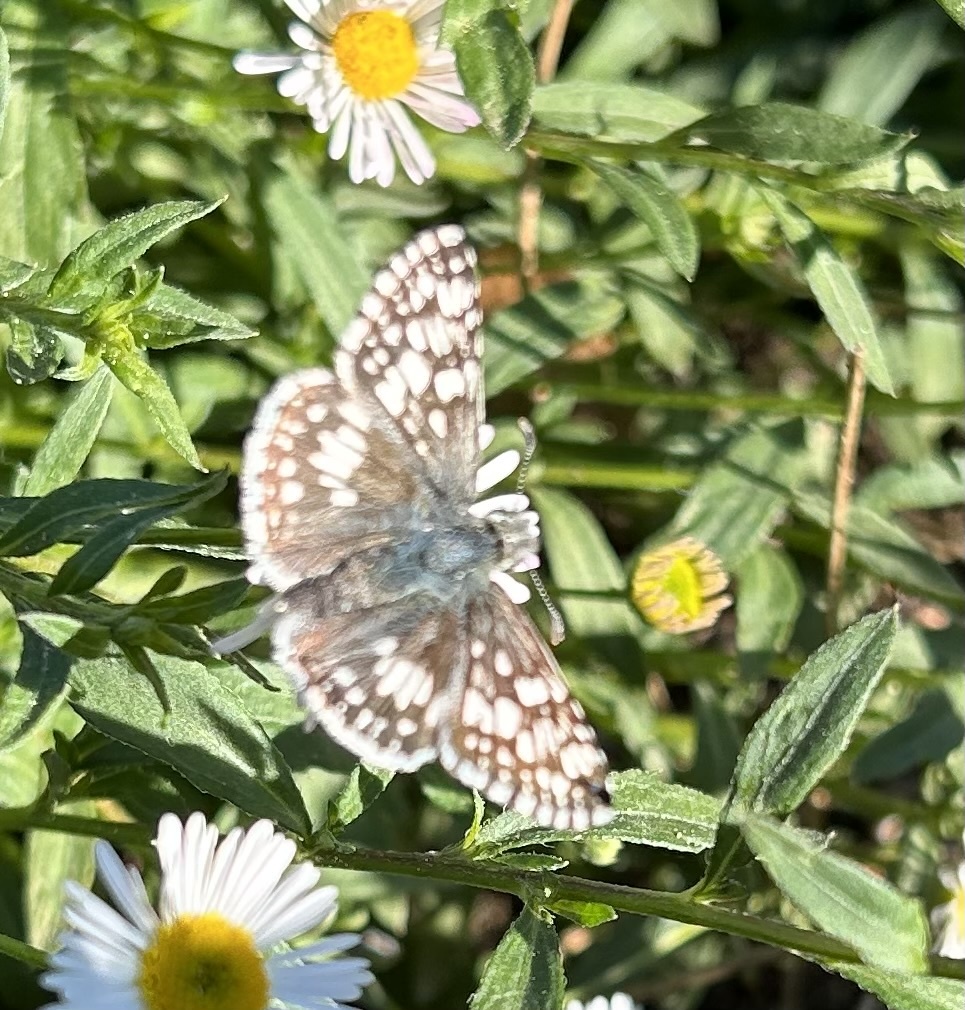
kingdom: Animalia
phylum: Arthropoda
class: Insecta
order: Lepidoptera
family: Hesperiidae
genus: Burnsius
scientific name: Burnsius communis
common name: Common checkered-skipper
